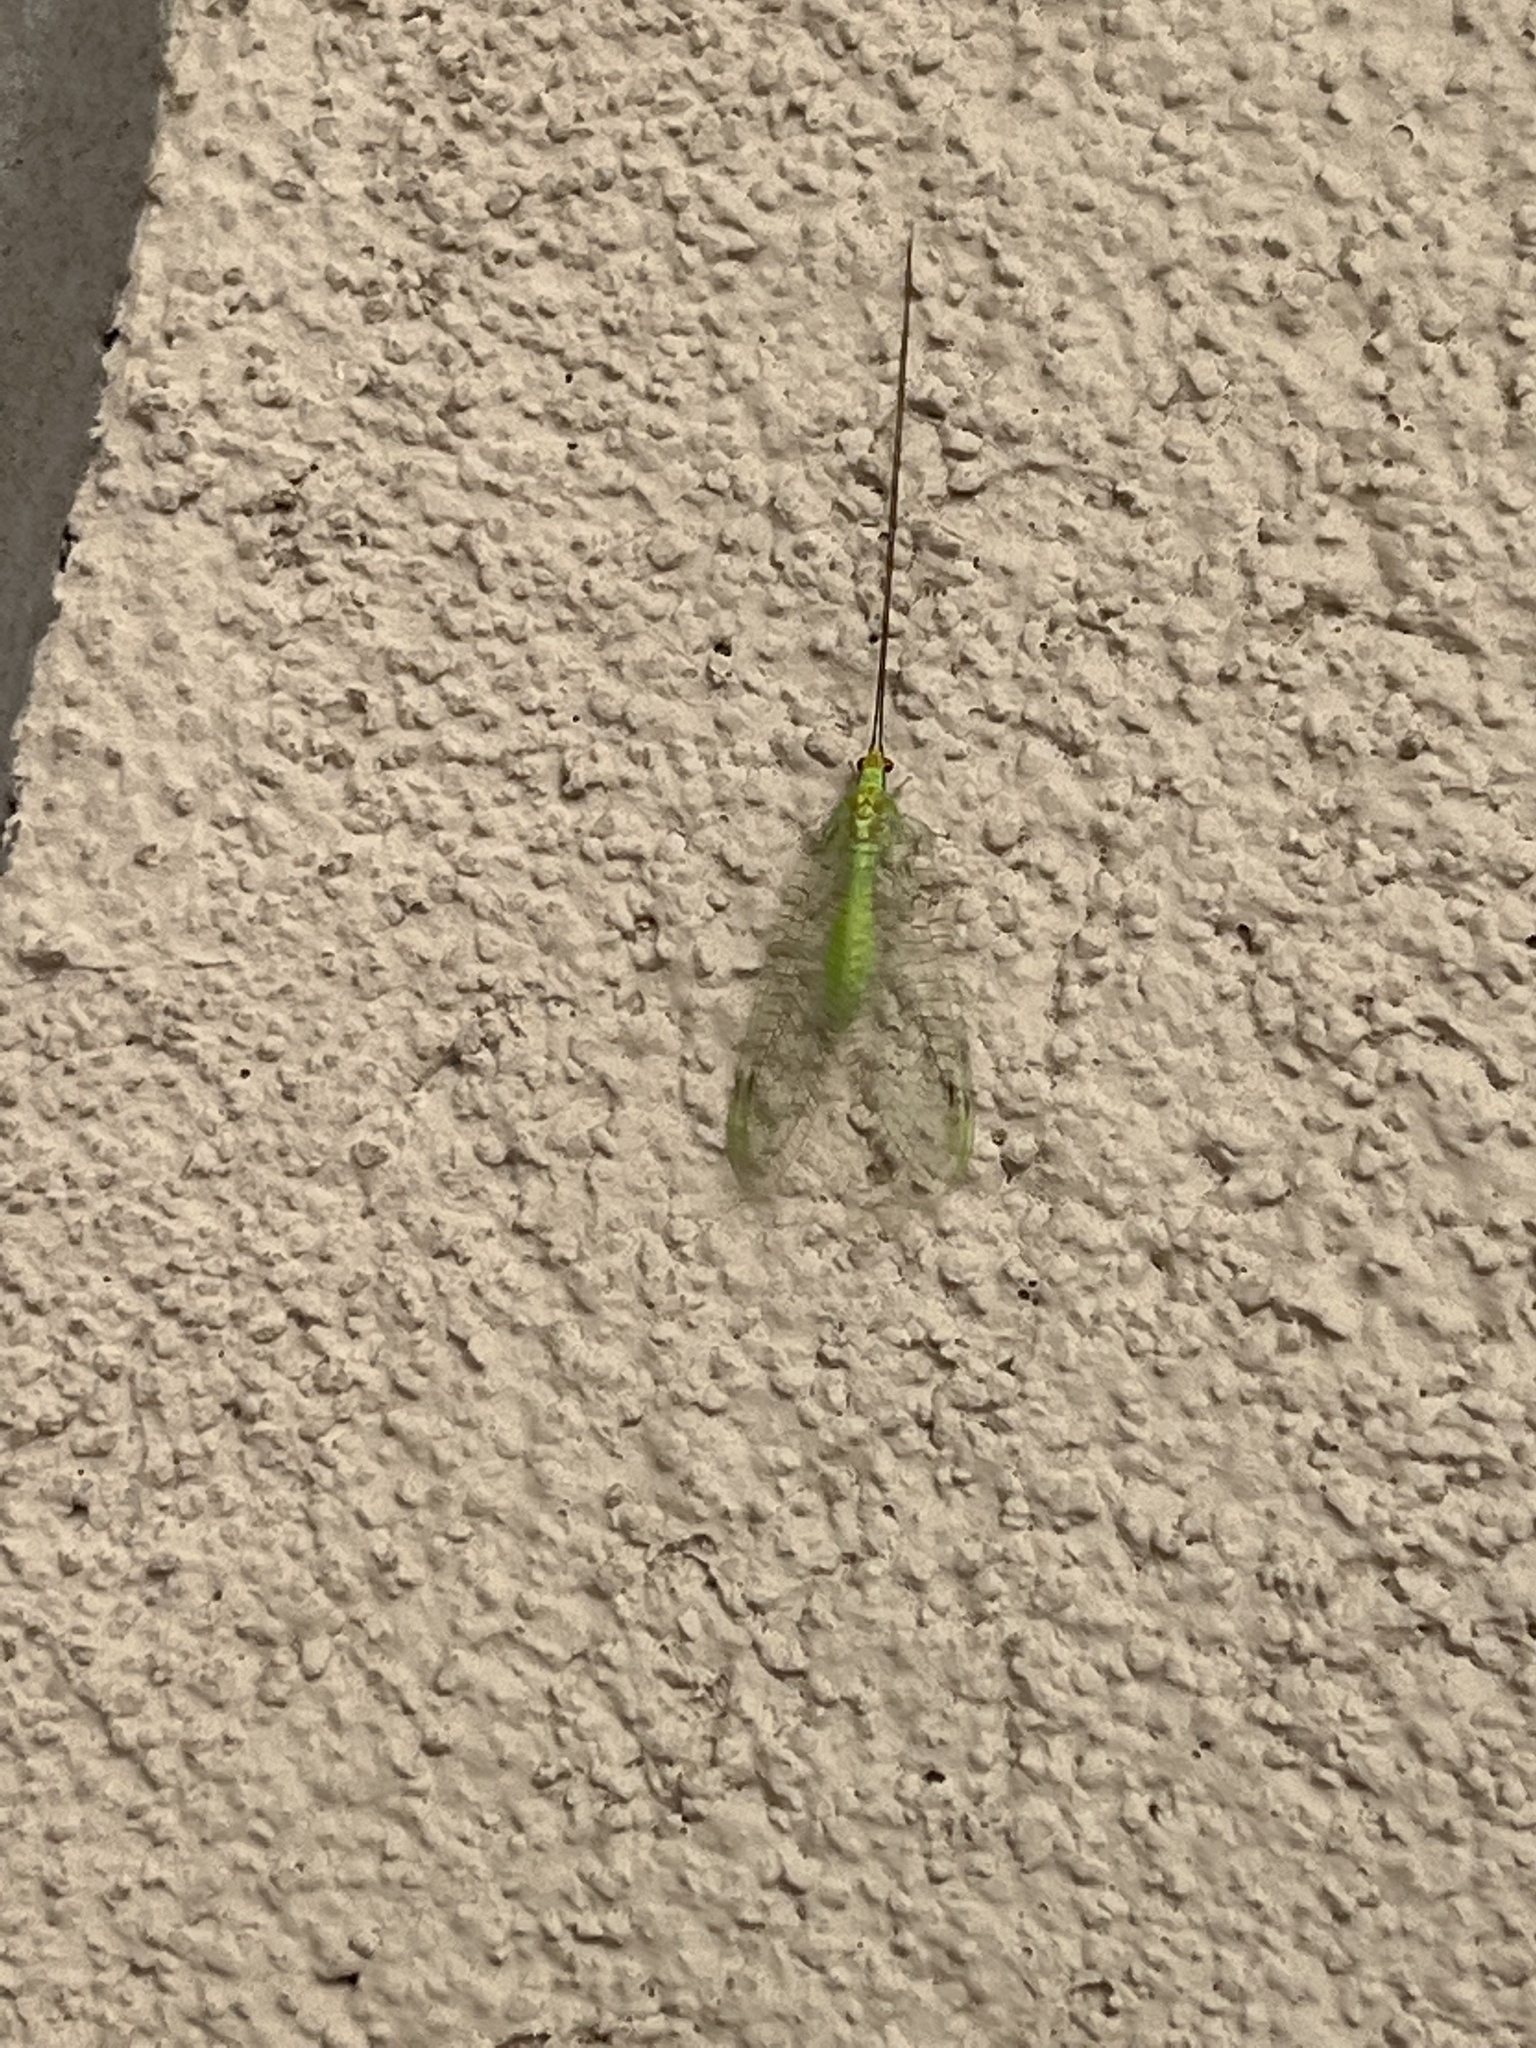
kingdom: Animalia
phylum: Arthropoda
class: Insecta
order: Neuroptera
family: Chrysopidae
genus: Leucochrysa
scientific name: Leucochrysa pavida
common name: Lichen-carrying green lacewing
